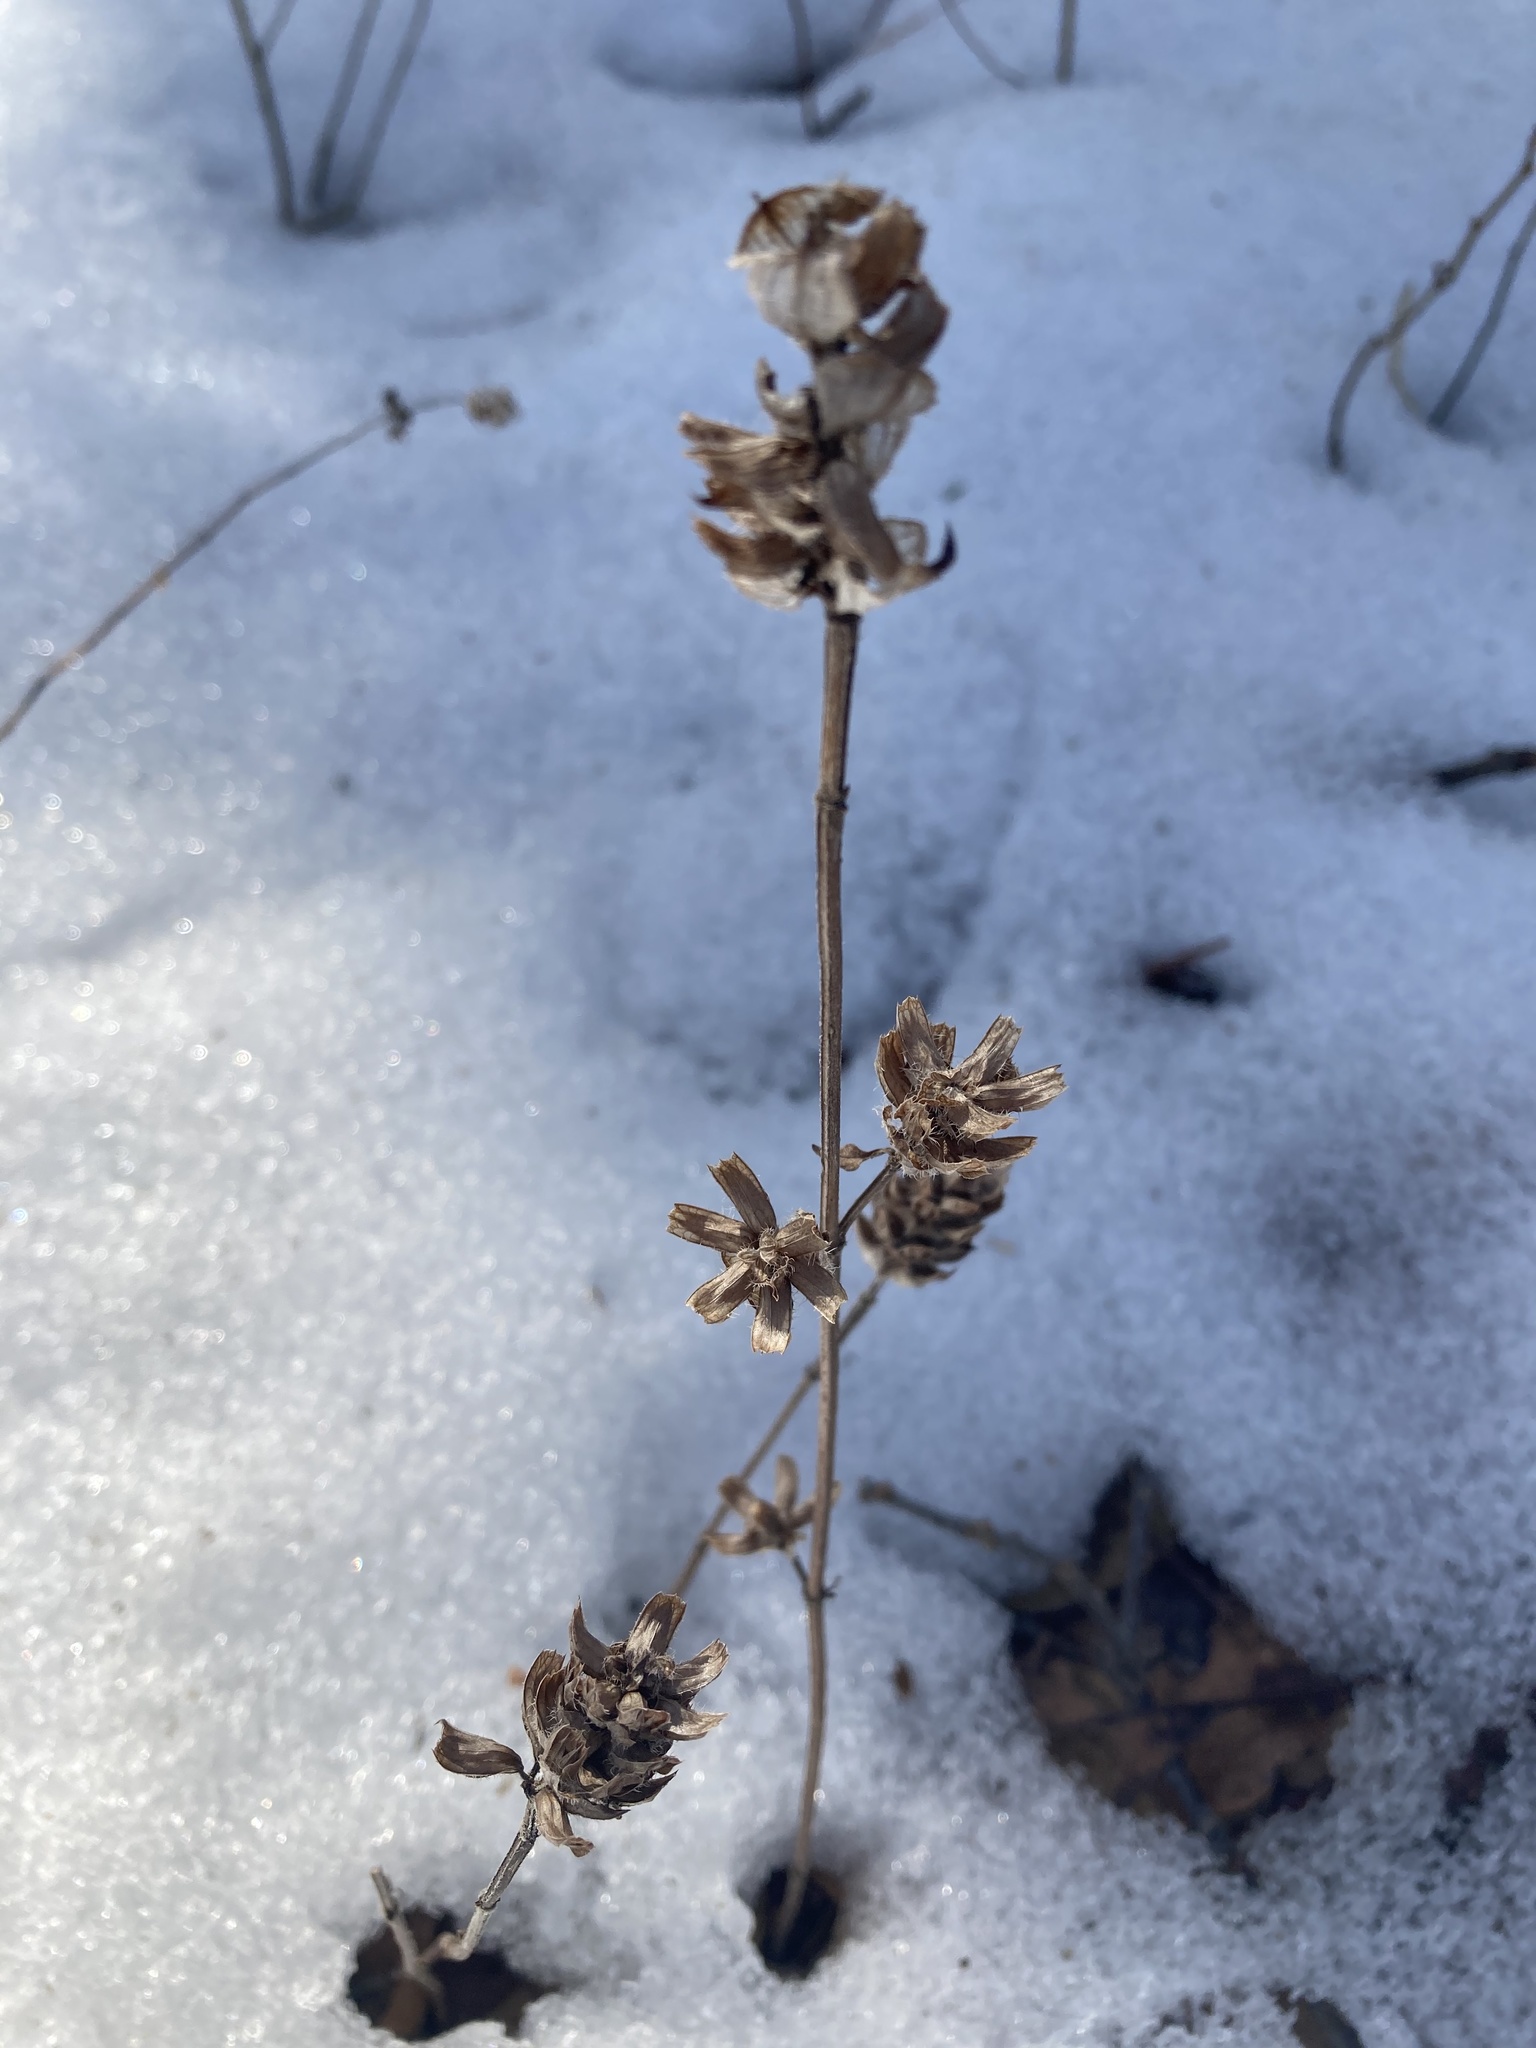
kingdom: Plantae
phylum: Tracheophyta
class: Magnoliopsida
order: Lamiales
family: Lamiaceae
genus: Prunella
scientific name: Prunella vulgaris
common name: Heal-all
